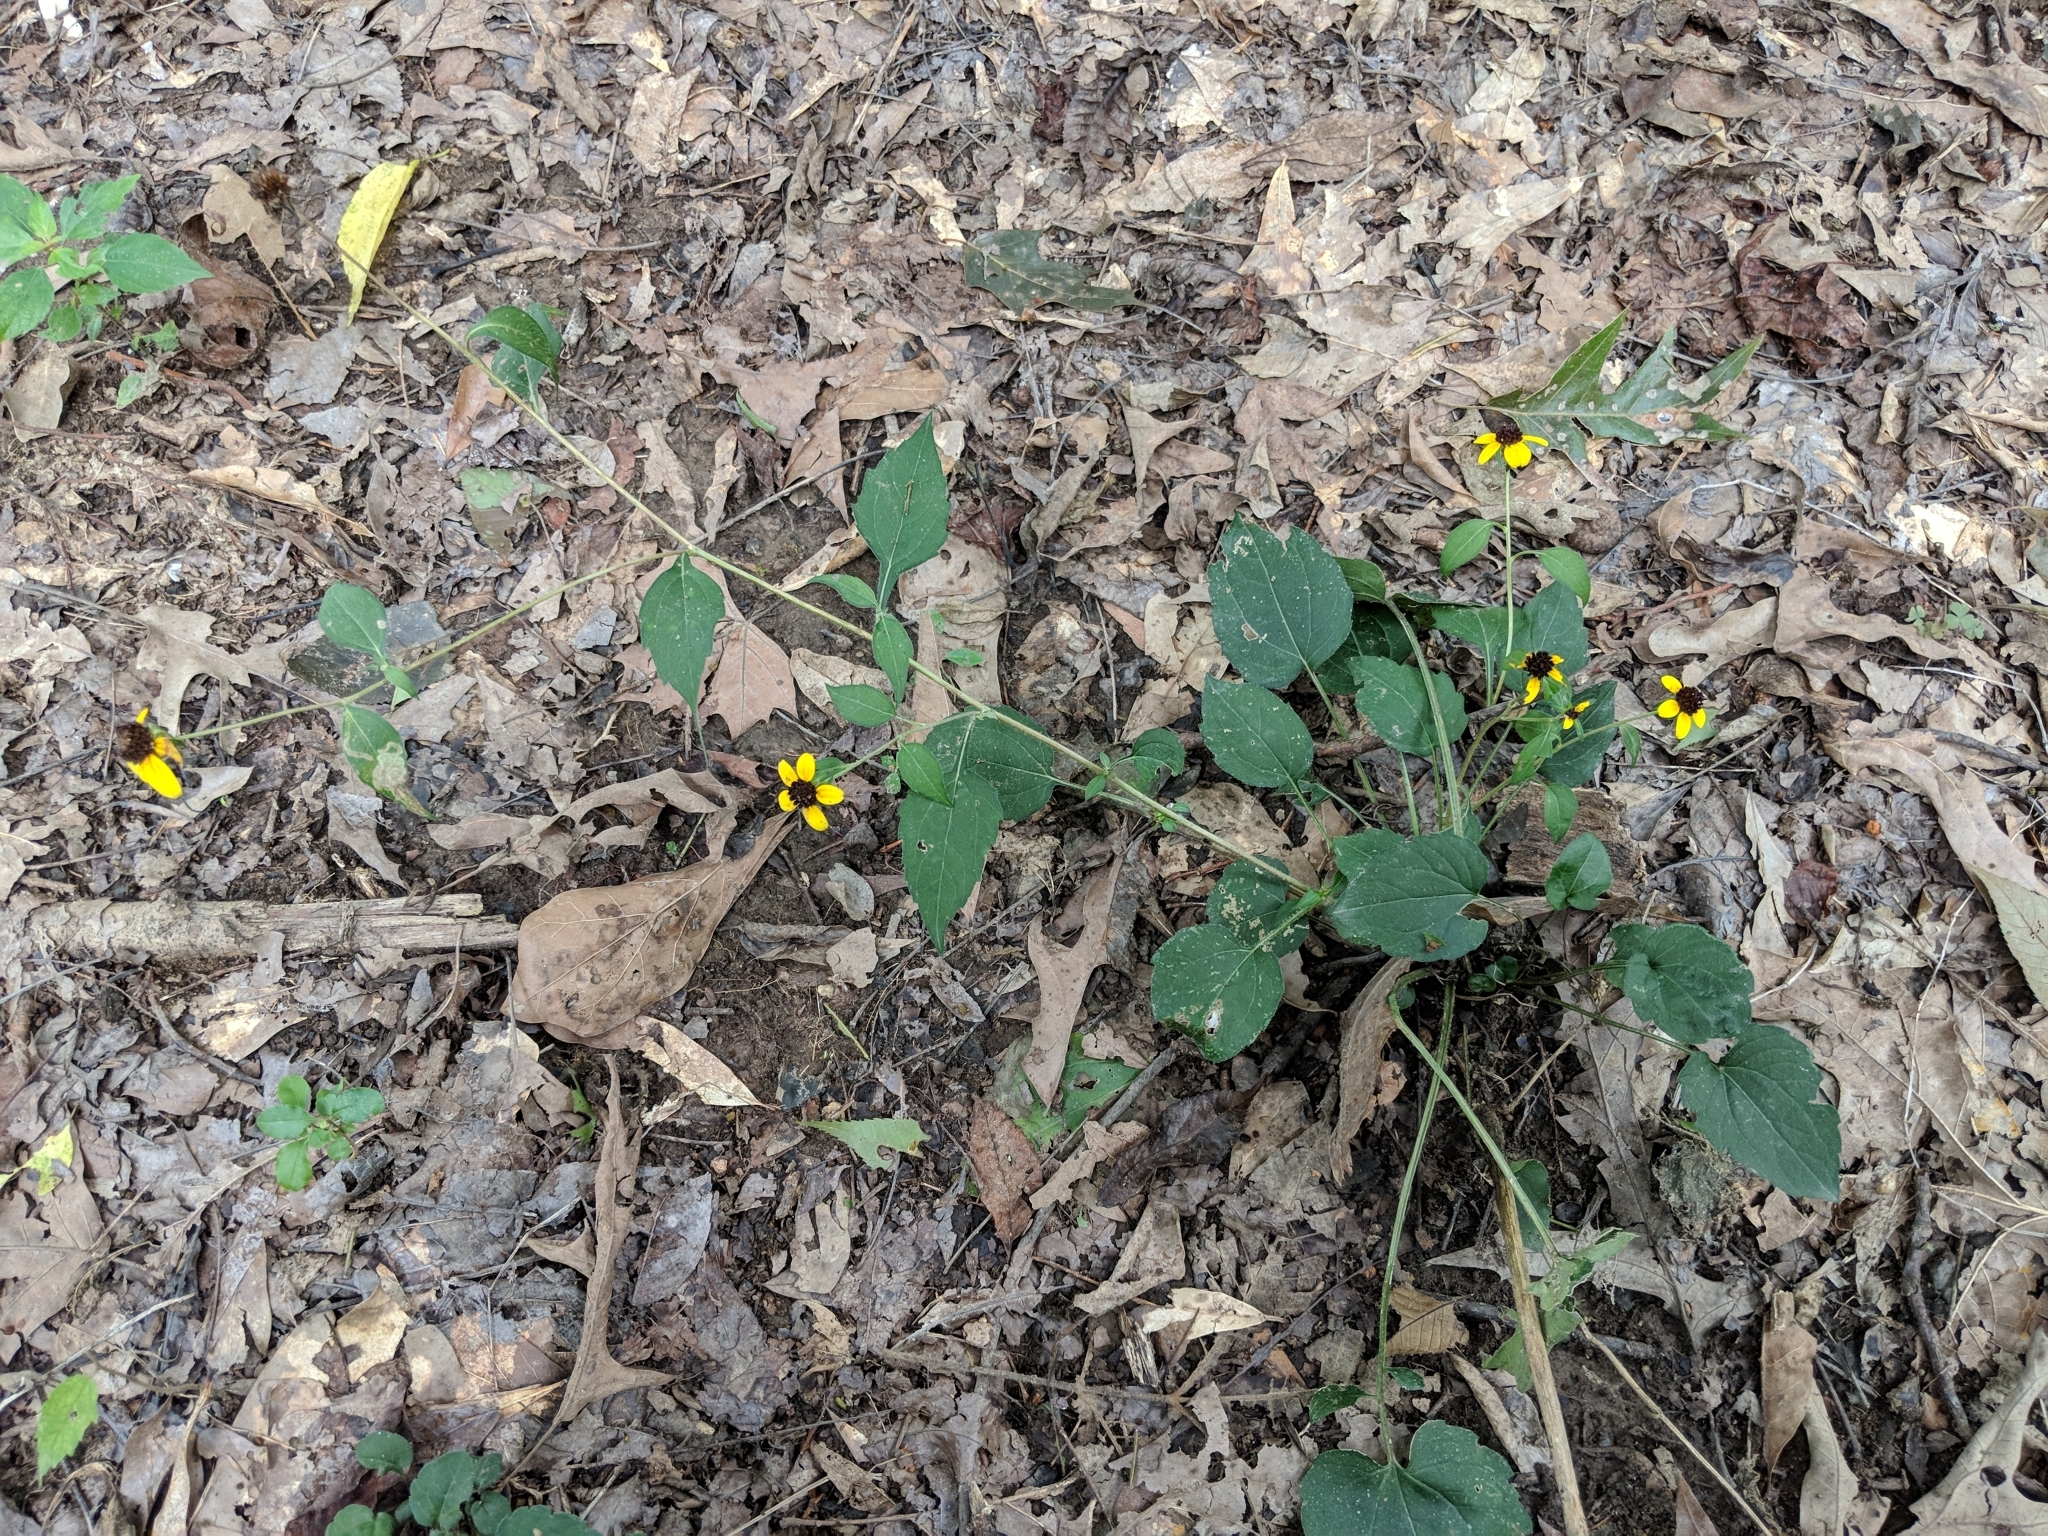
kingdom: Plantae
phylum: Tracheophyta
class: Magnoliopsida
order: Asterales
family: Asteraceae
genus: Rudbeckia
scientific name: Rudbeckia triloba
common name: Thin-leaved coneflower
